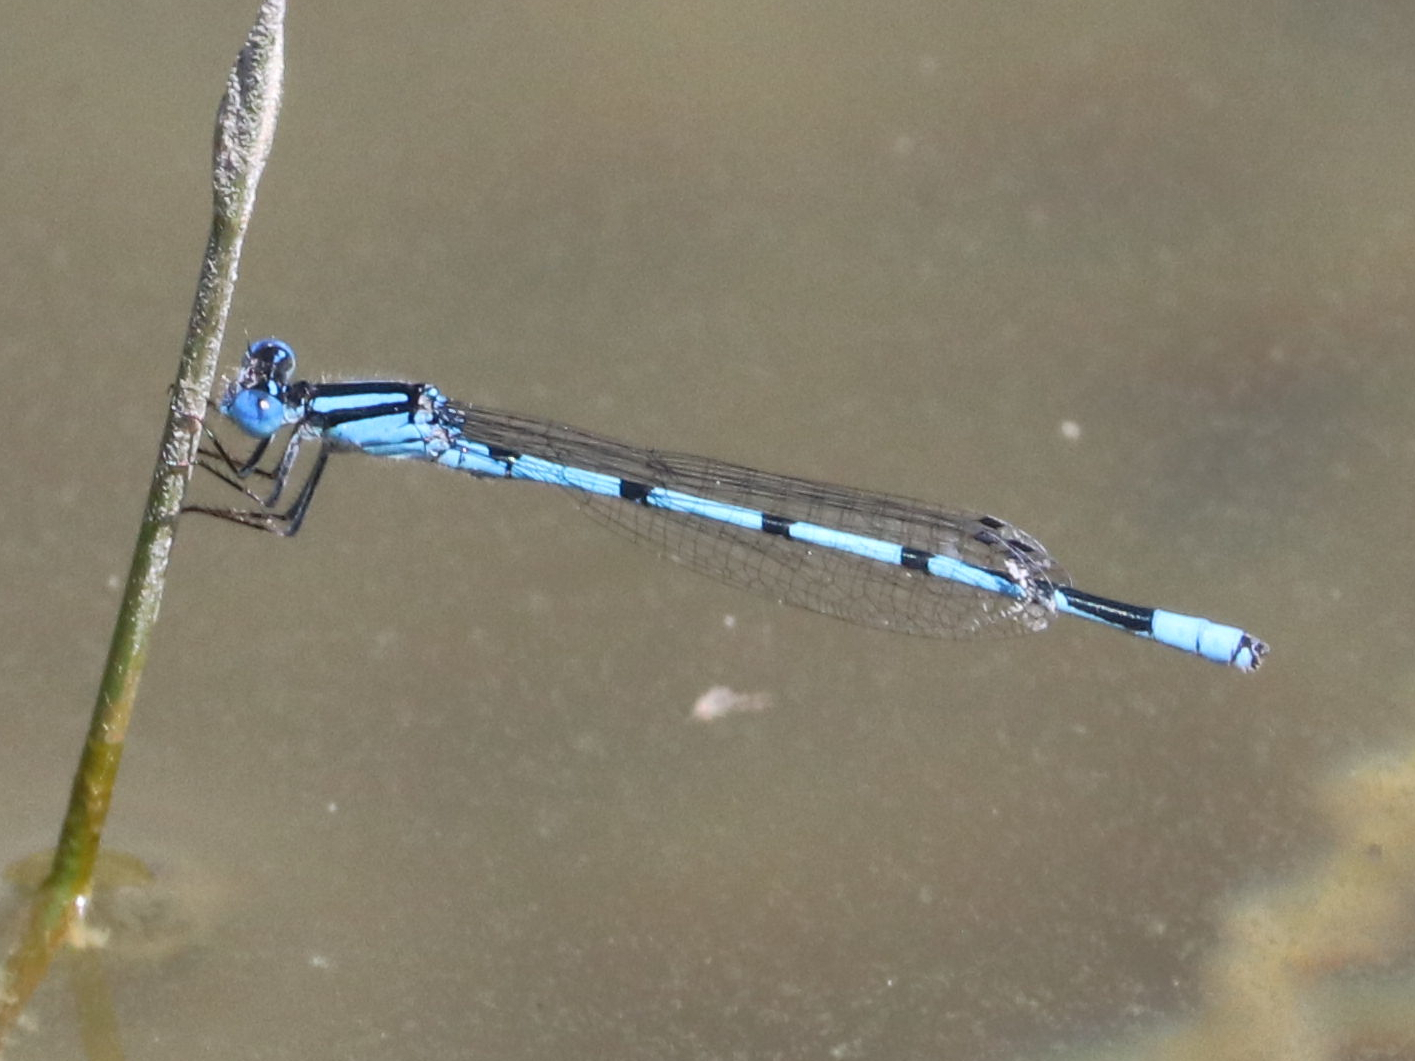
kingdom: Animalia
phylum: Arthropoda
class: Insecta
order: Odonata
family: Coenagrionidae
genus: Enallagma
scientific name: Enallagma doubledayi
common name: Atlantic bluet
